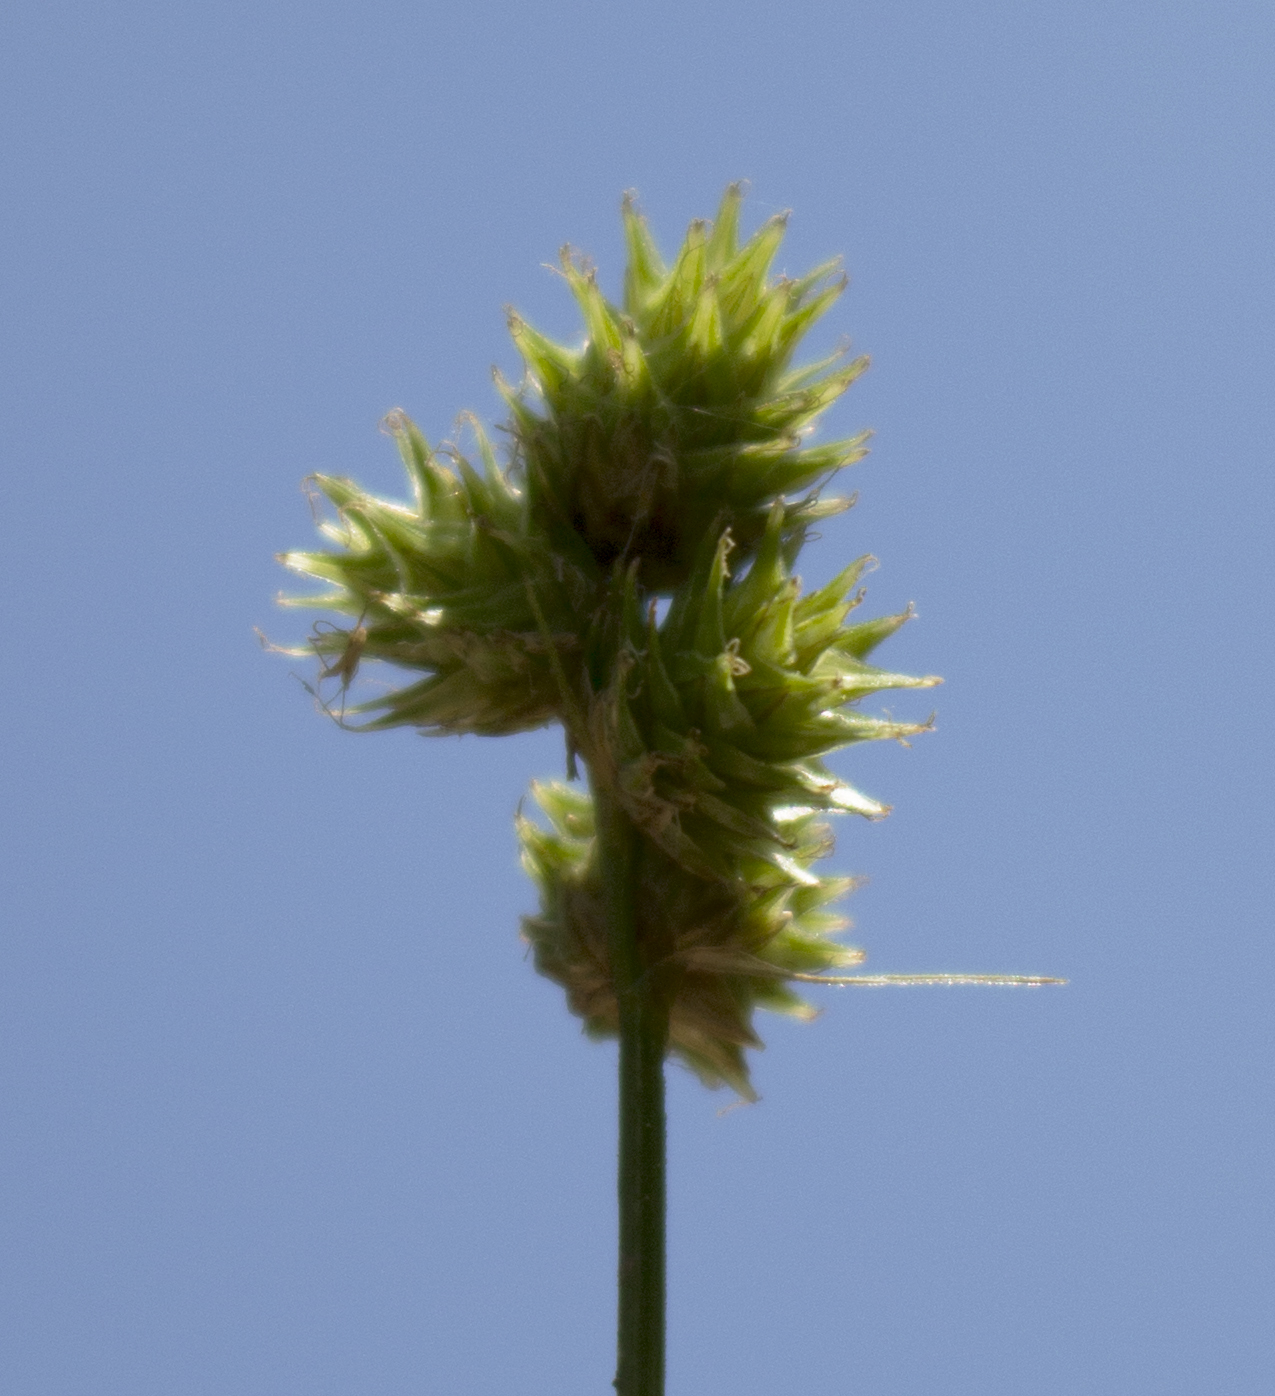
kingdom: Plantae
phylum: Tracheophyta
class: Liliopsida
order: Poales
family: Cyperaceae
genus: Carex
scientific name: Carex cephalophora
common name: Oval-headed sedge
